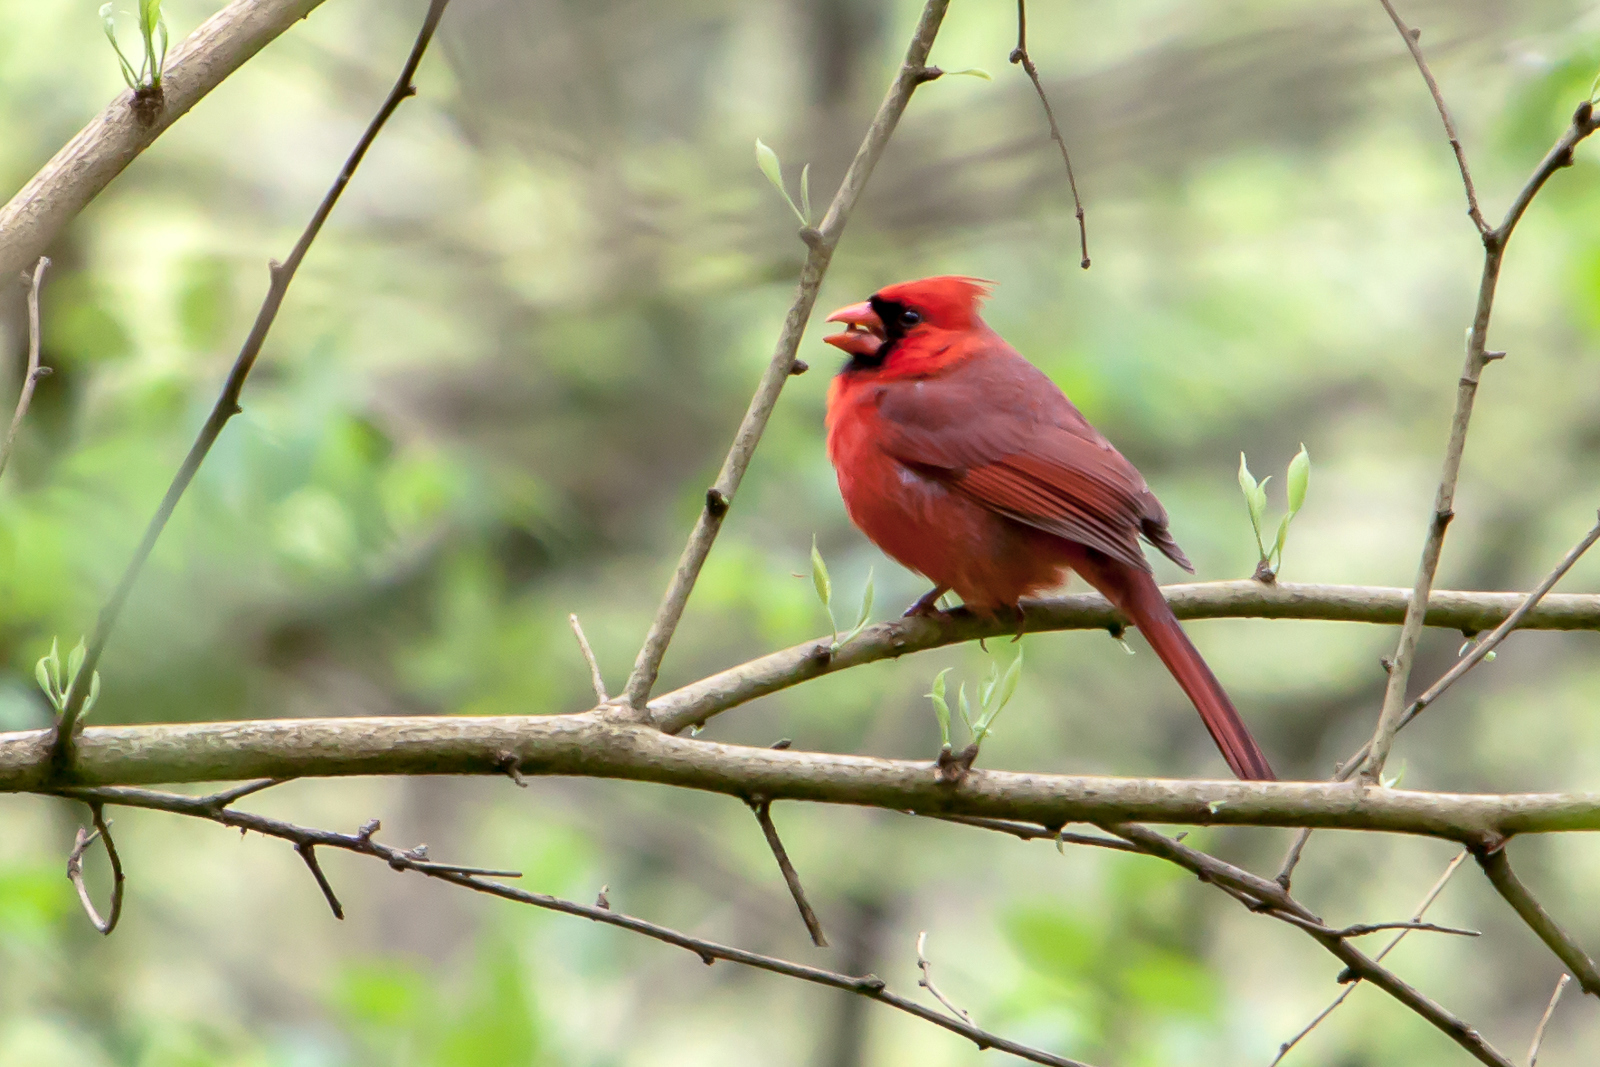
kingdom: Animalia
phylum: Chordata
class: Aves
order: Passeriformes
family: Cardinalidae
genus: Cardinalis
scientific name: Cardinalis cardinalis
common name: Northern cardinal
